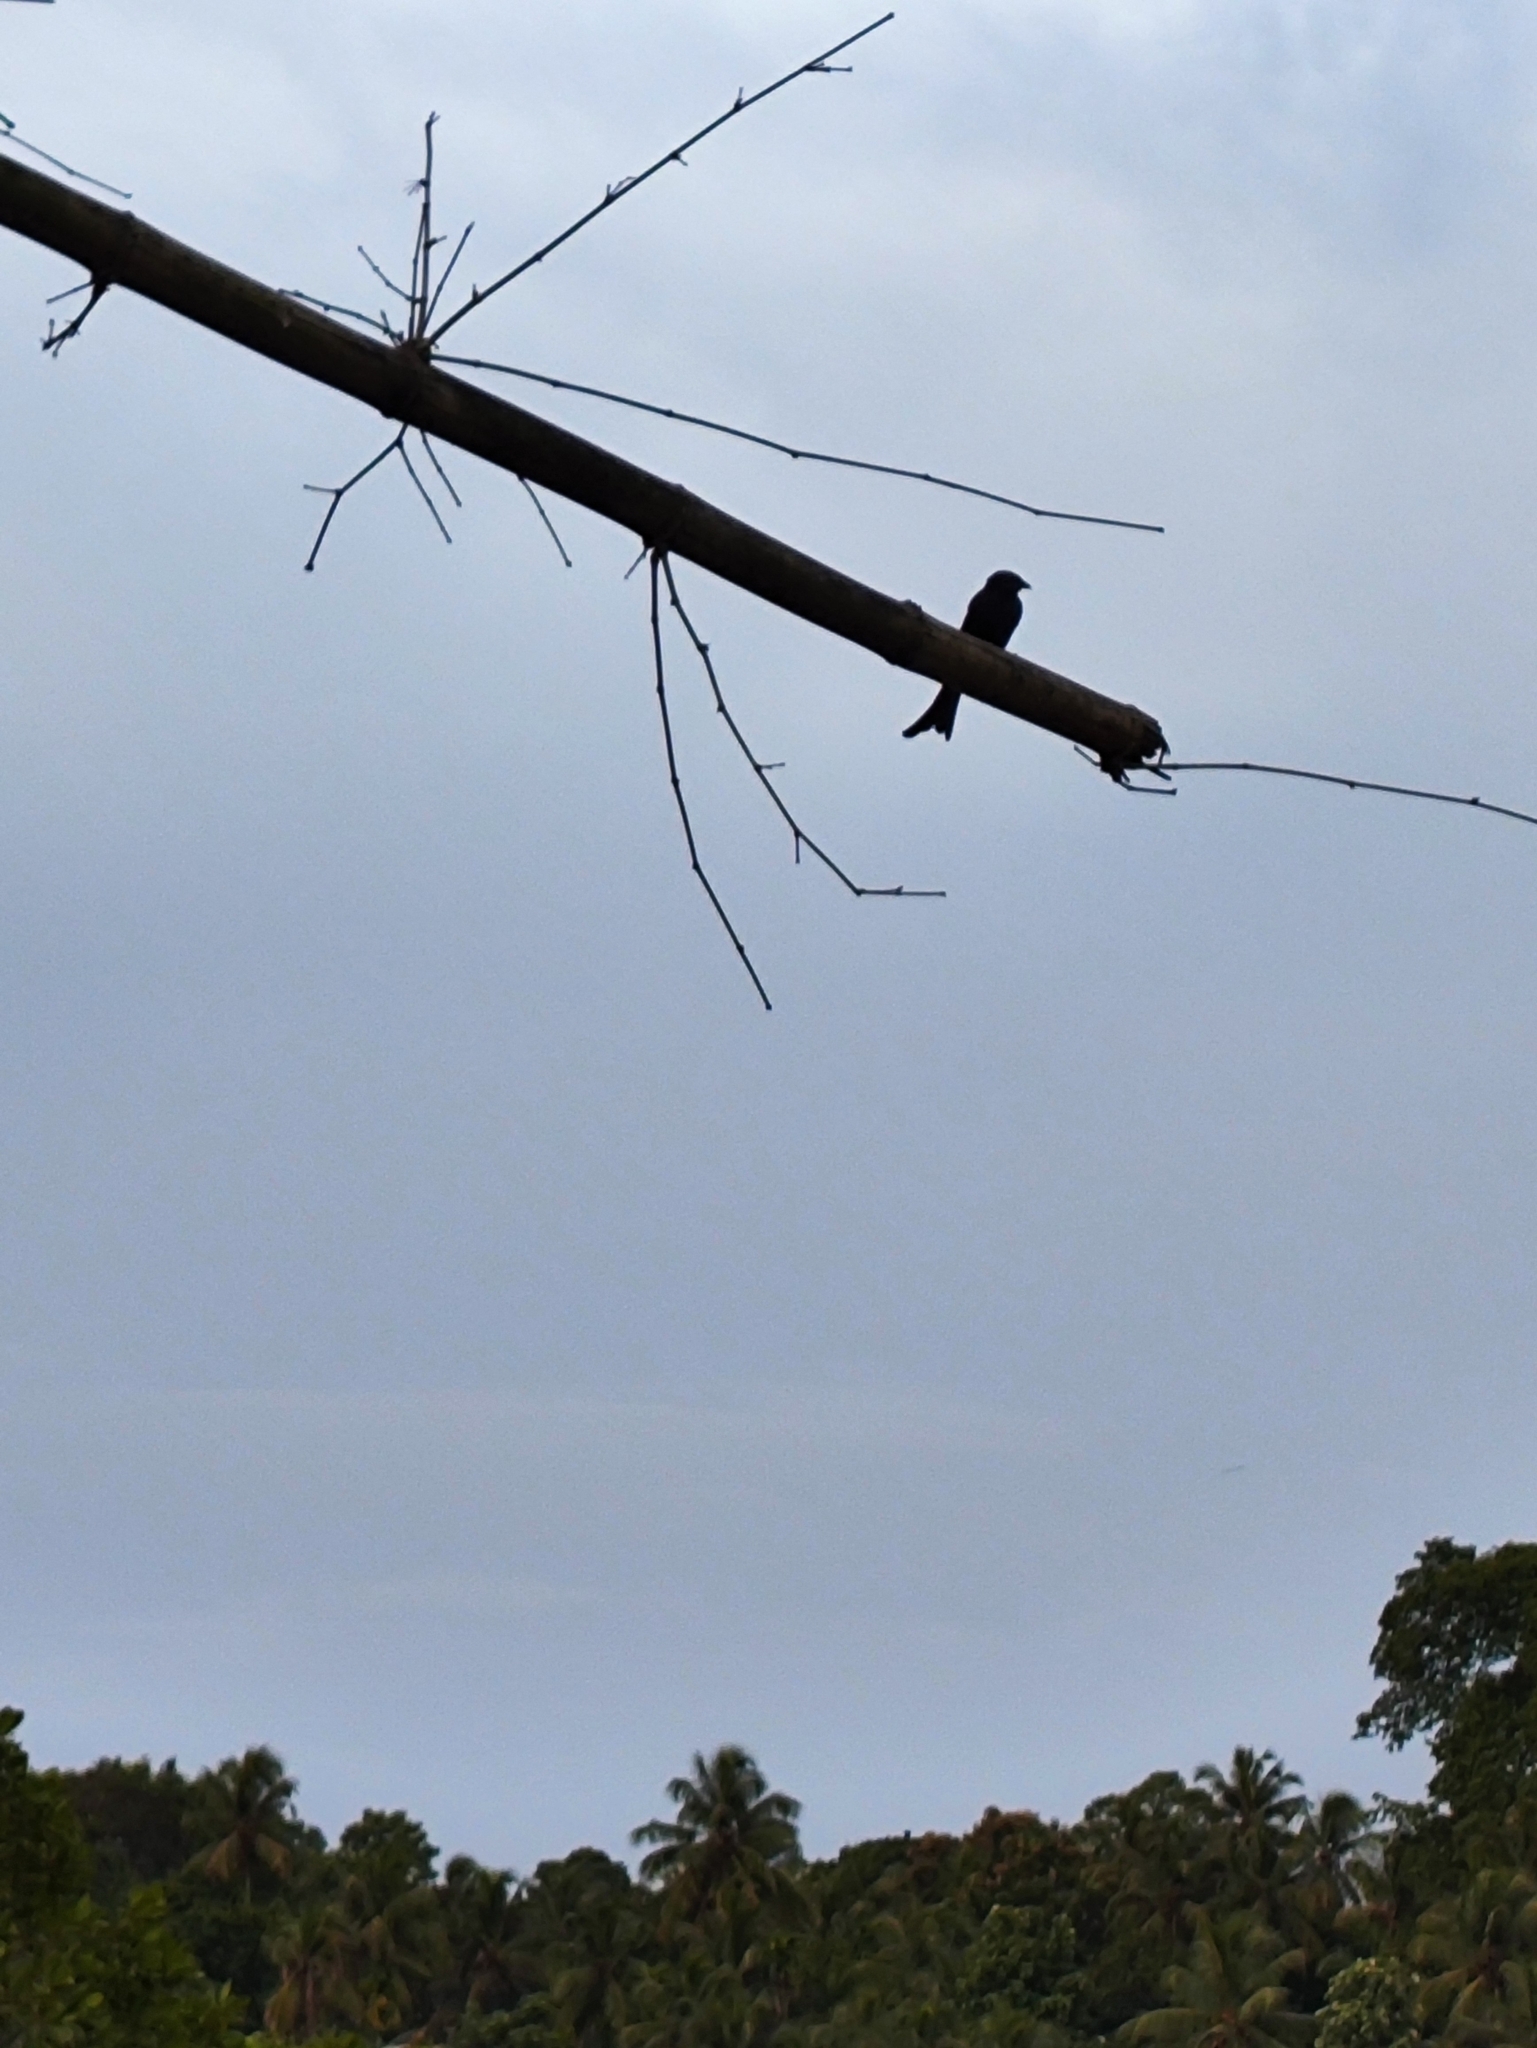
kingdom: Animalia
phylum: Chordata
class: Aves
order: Passeriformes
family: Dicruridae
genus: Dicrurus
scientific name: Dicrurus macrocercus
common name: Black drongo
